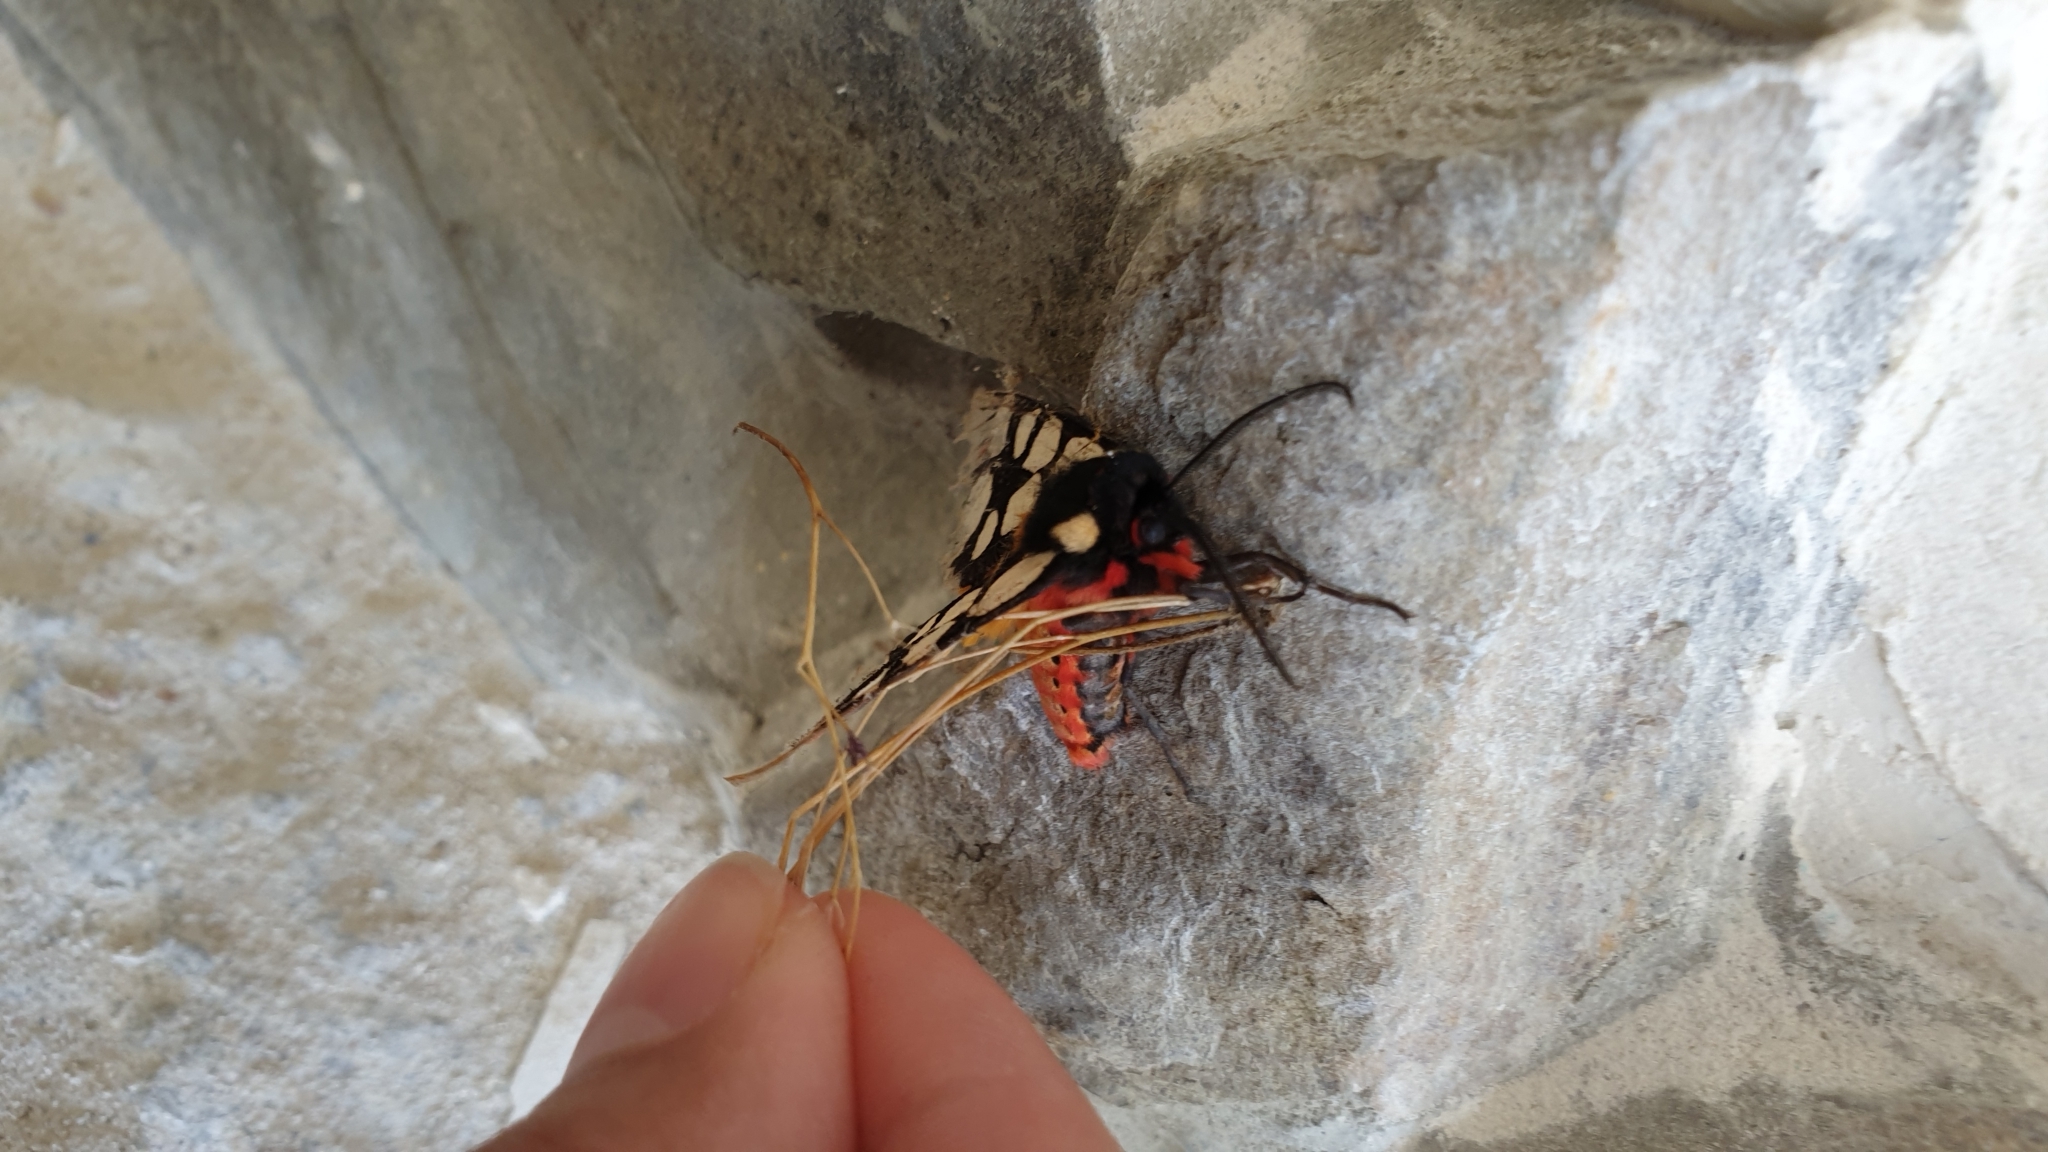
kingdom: Animalia
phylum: Arthropoda
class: Insecta
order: Lepidoptera
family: Erebidae
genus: Epicallia
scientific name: Epicallia villica
